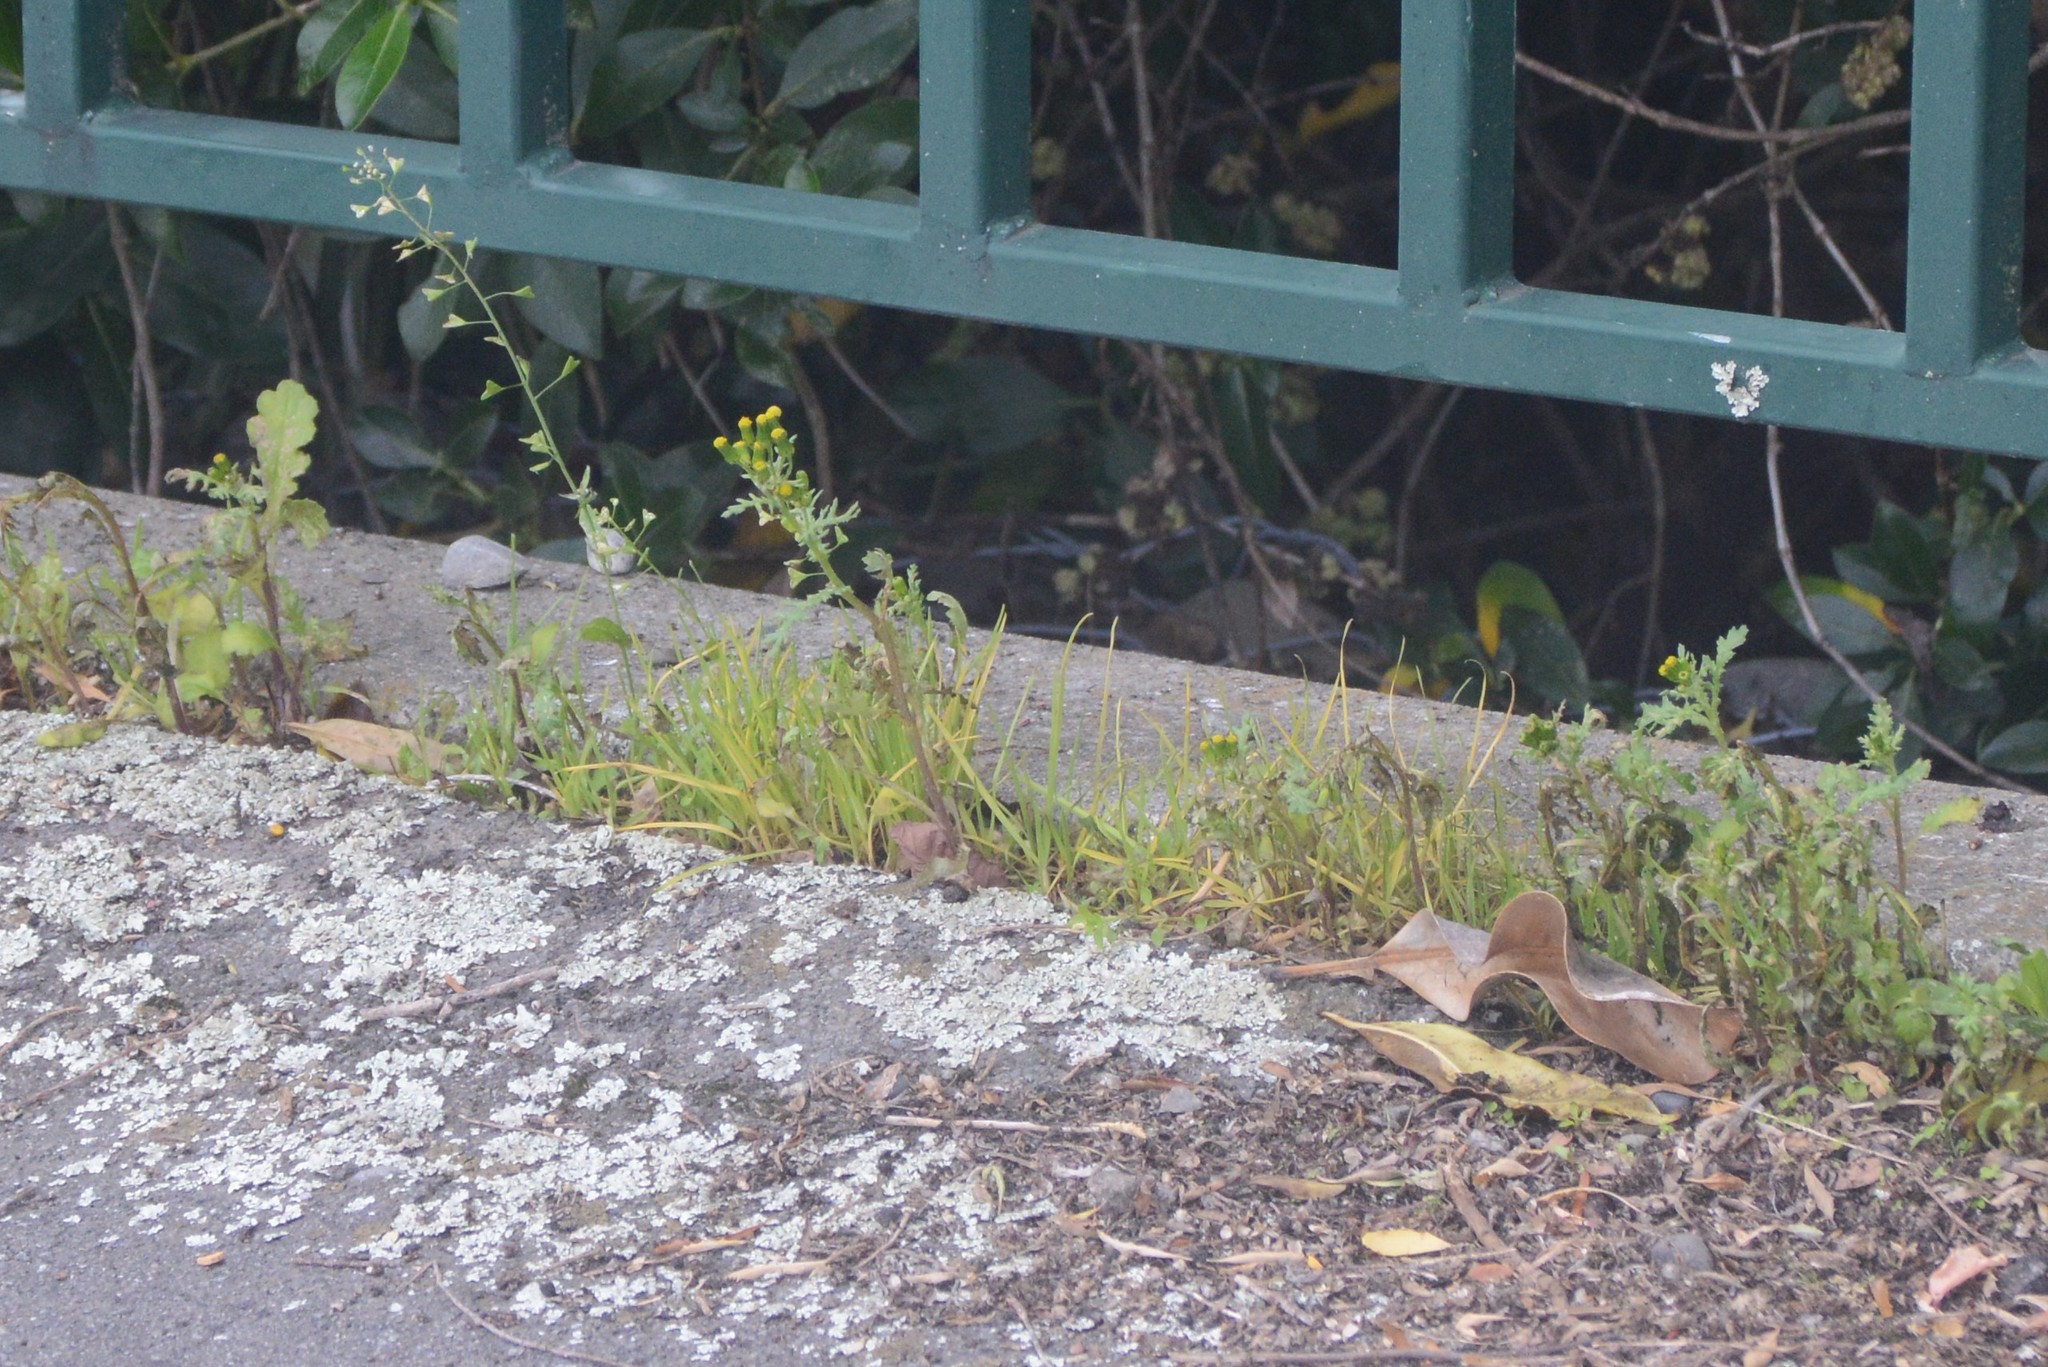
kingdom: Plantae
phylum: Tracheophyta
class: Magnoliopsida
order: Asterales
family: Asteraceae
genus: Senecio
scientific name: Senecio vulgaris
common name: Old-man-in-the-spring
